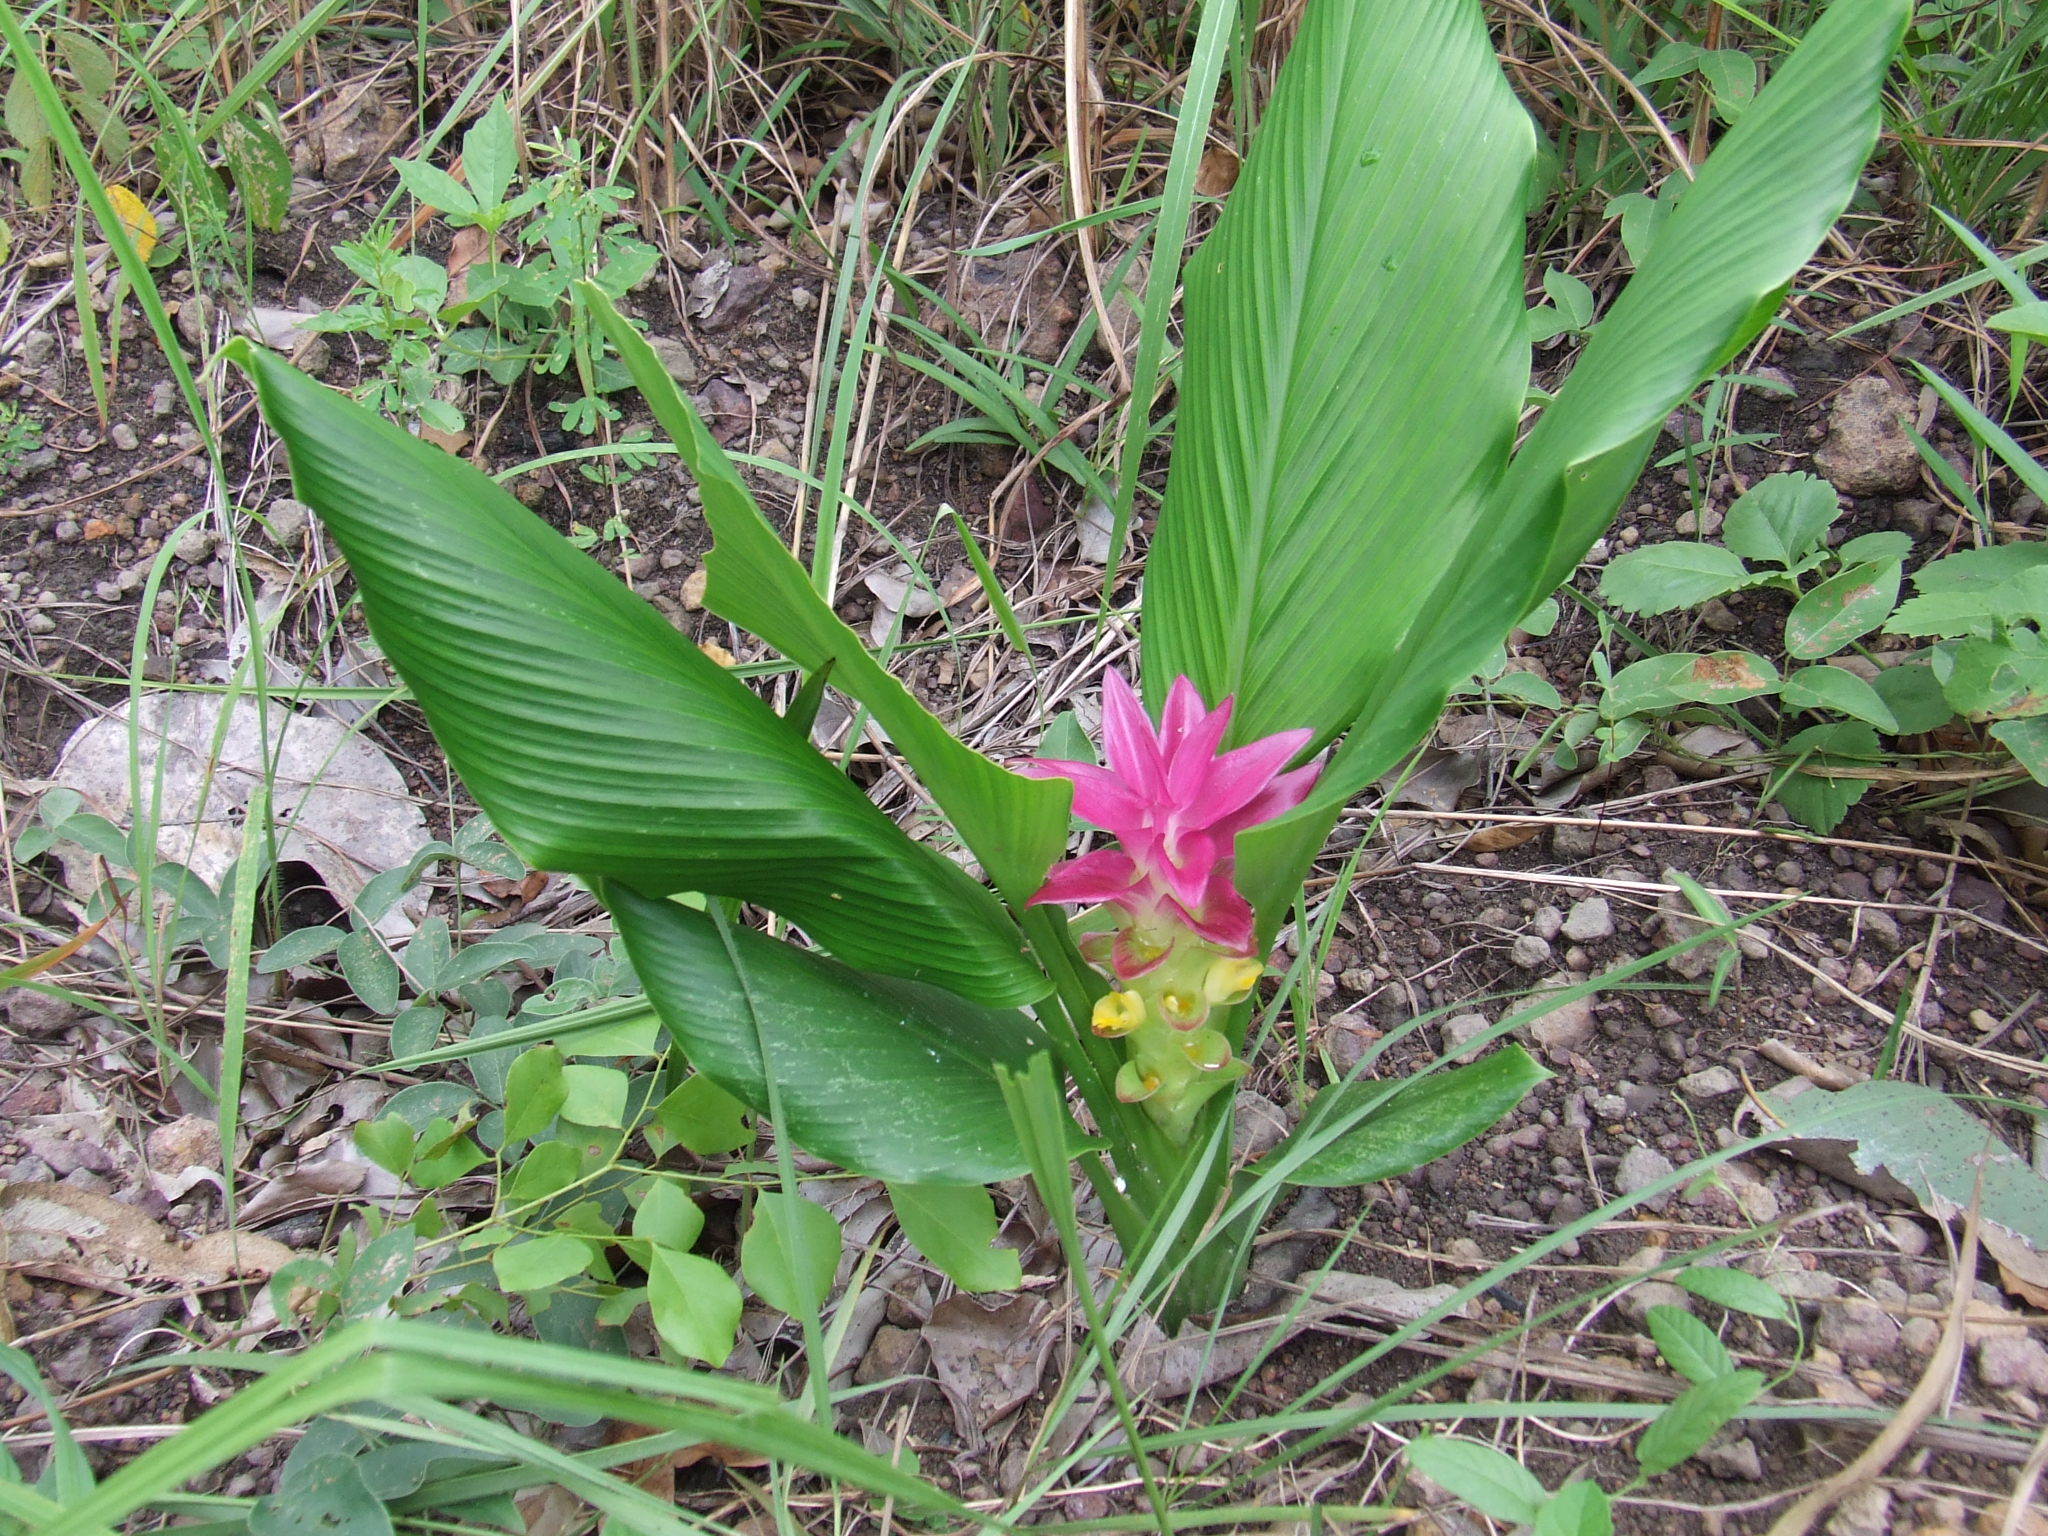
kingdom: Plantae
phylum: Tracheophyta
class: Liliopsida
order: Zingiberales
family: Zingiberaceae
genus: Curcuma
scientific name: Curcuma australasica
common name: Australian wild turmeric
